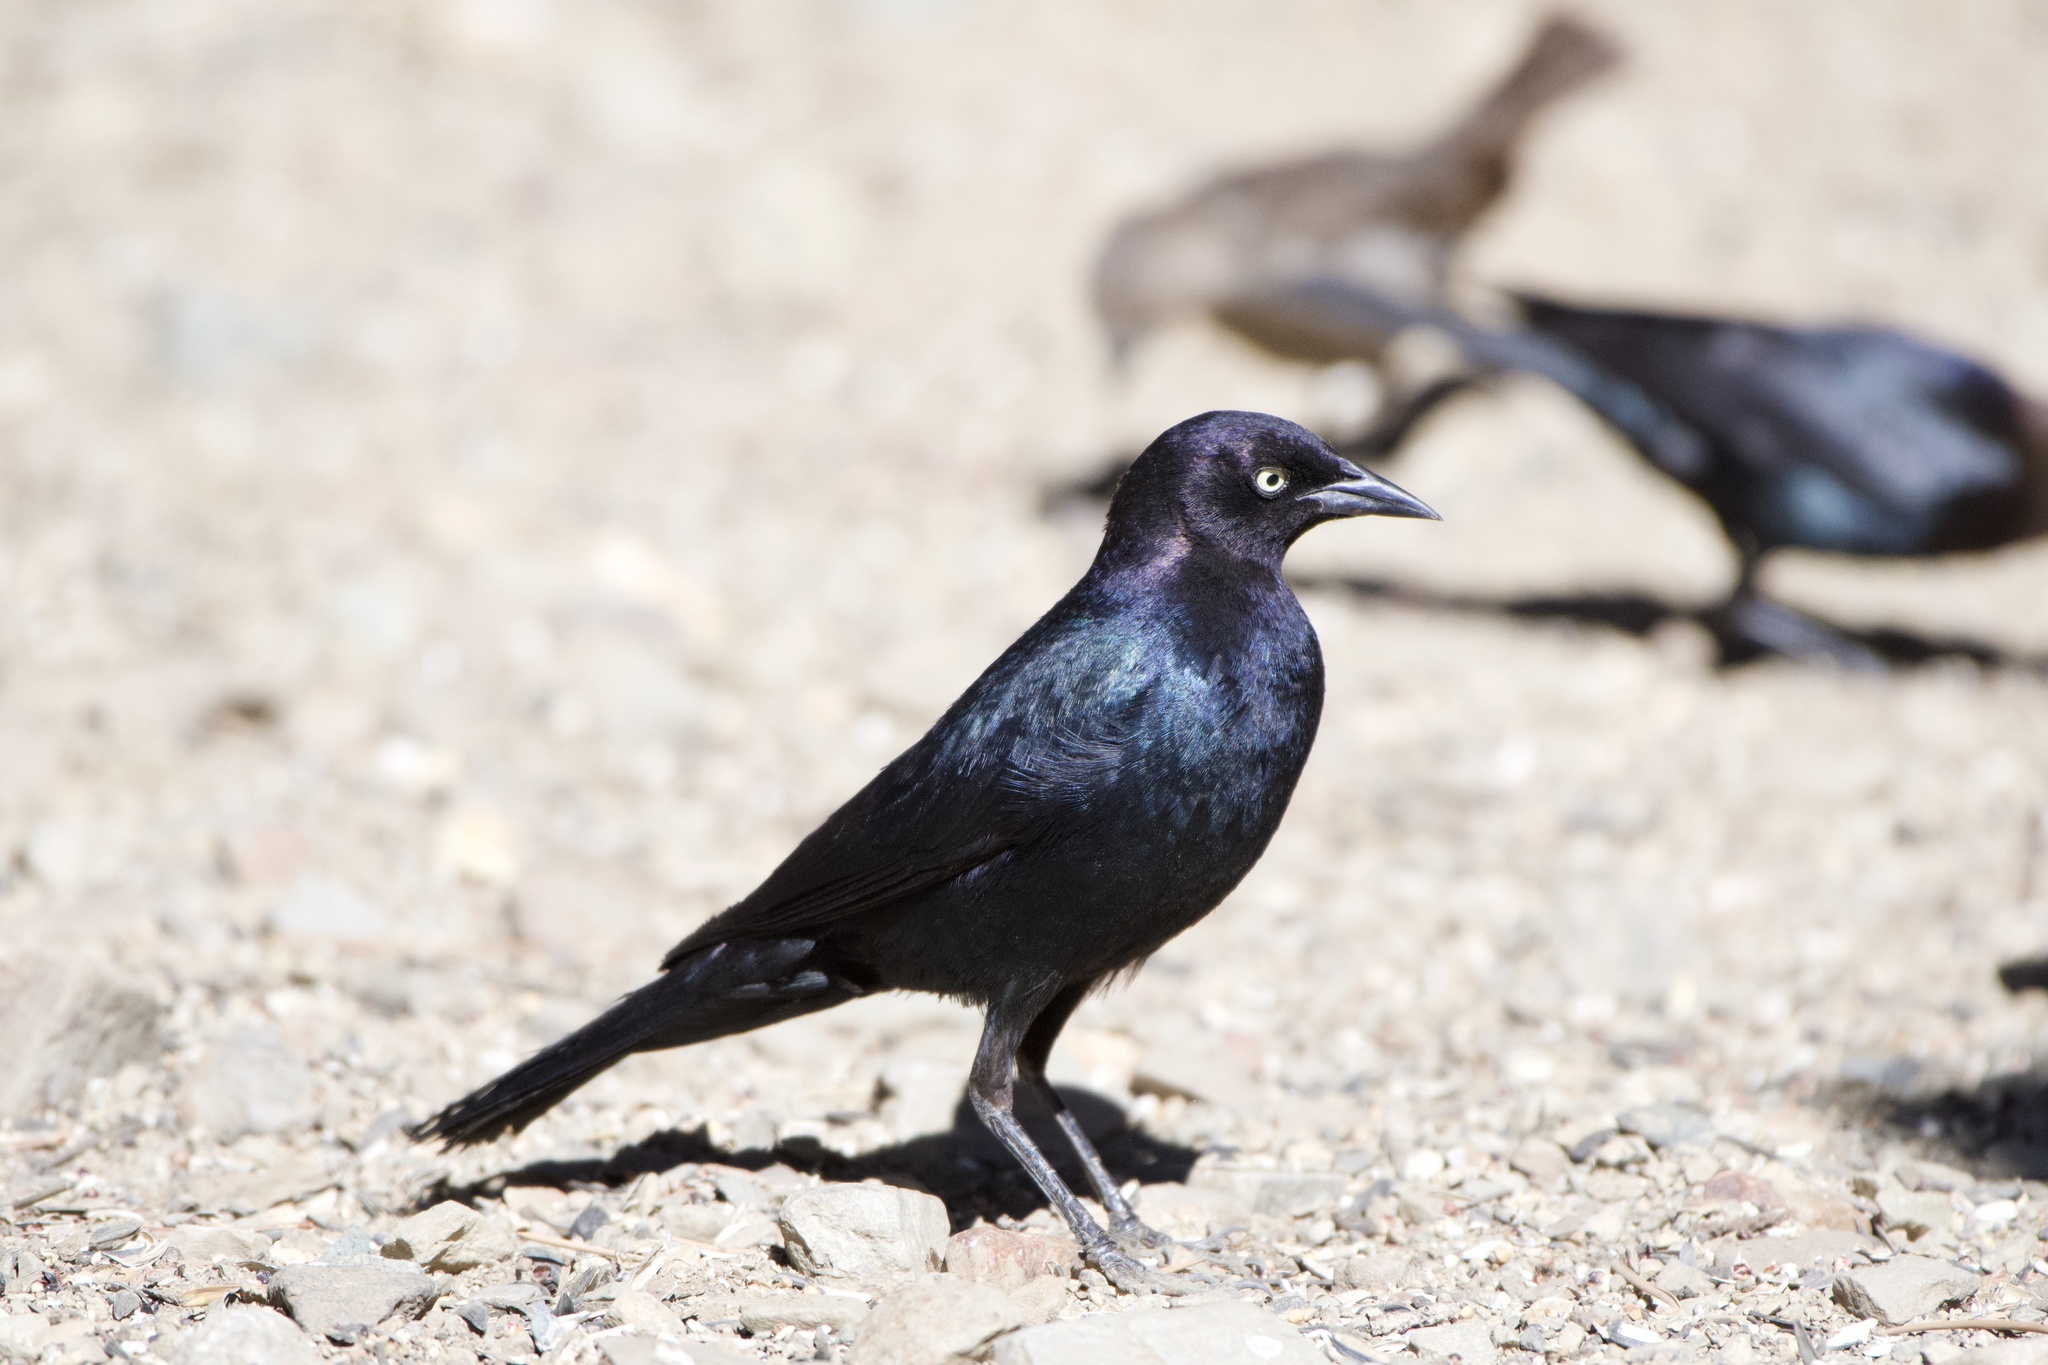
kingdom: Animalia
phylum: Chordata
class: Aves
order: Passeriformes
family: Icteridae
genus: Euphagus
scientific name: Euphagus cyanocephalus
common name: Brewer's blackbird
